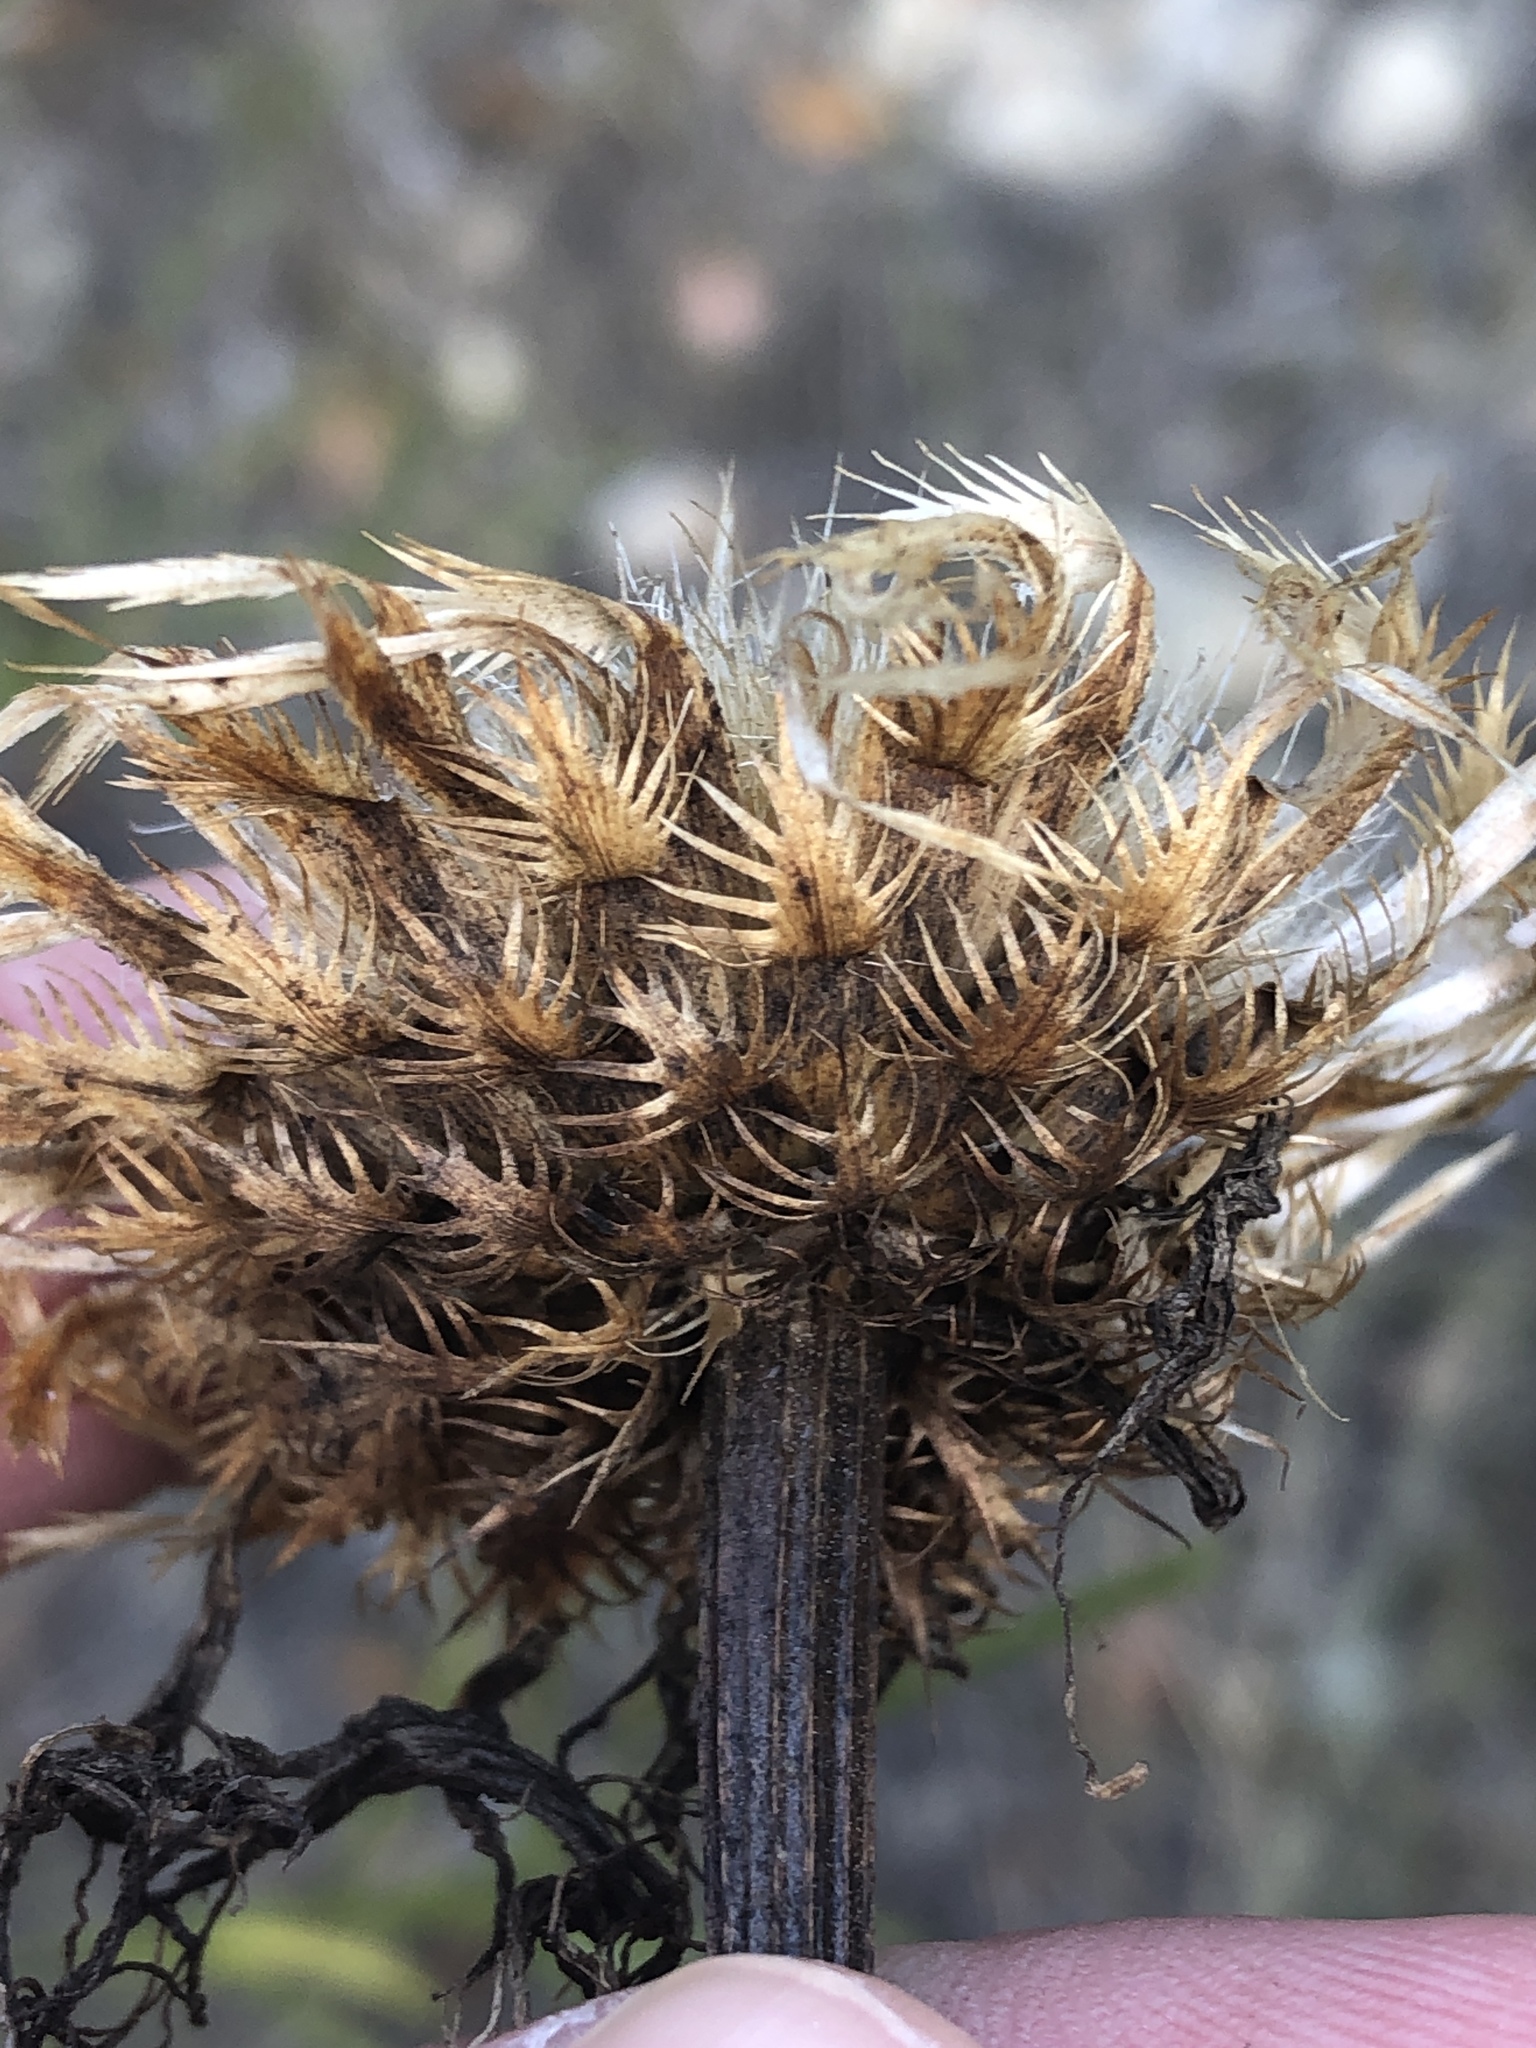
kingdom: Plantae
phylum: Tracheophyta
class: Magnoliopsida
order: Asterales
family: Asteraceae
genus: Plectocephalus
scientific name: Plectocephalus americanus
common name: American basket-flower
